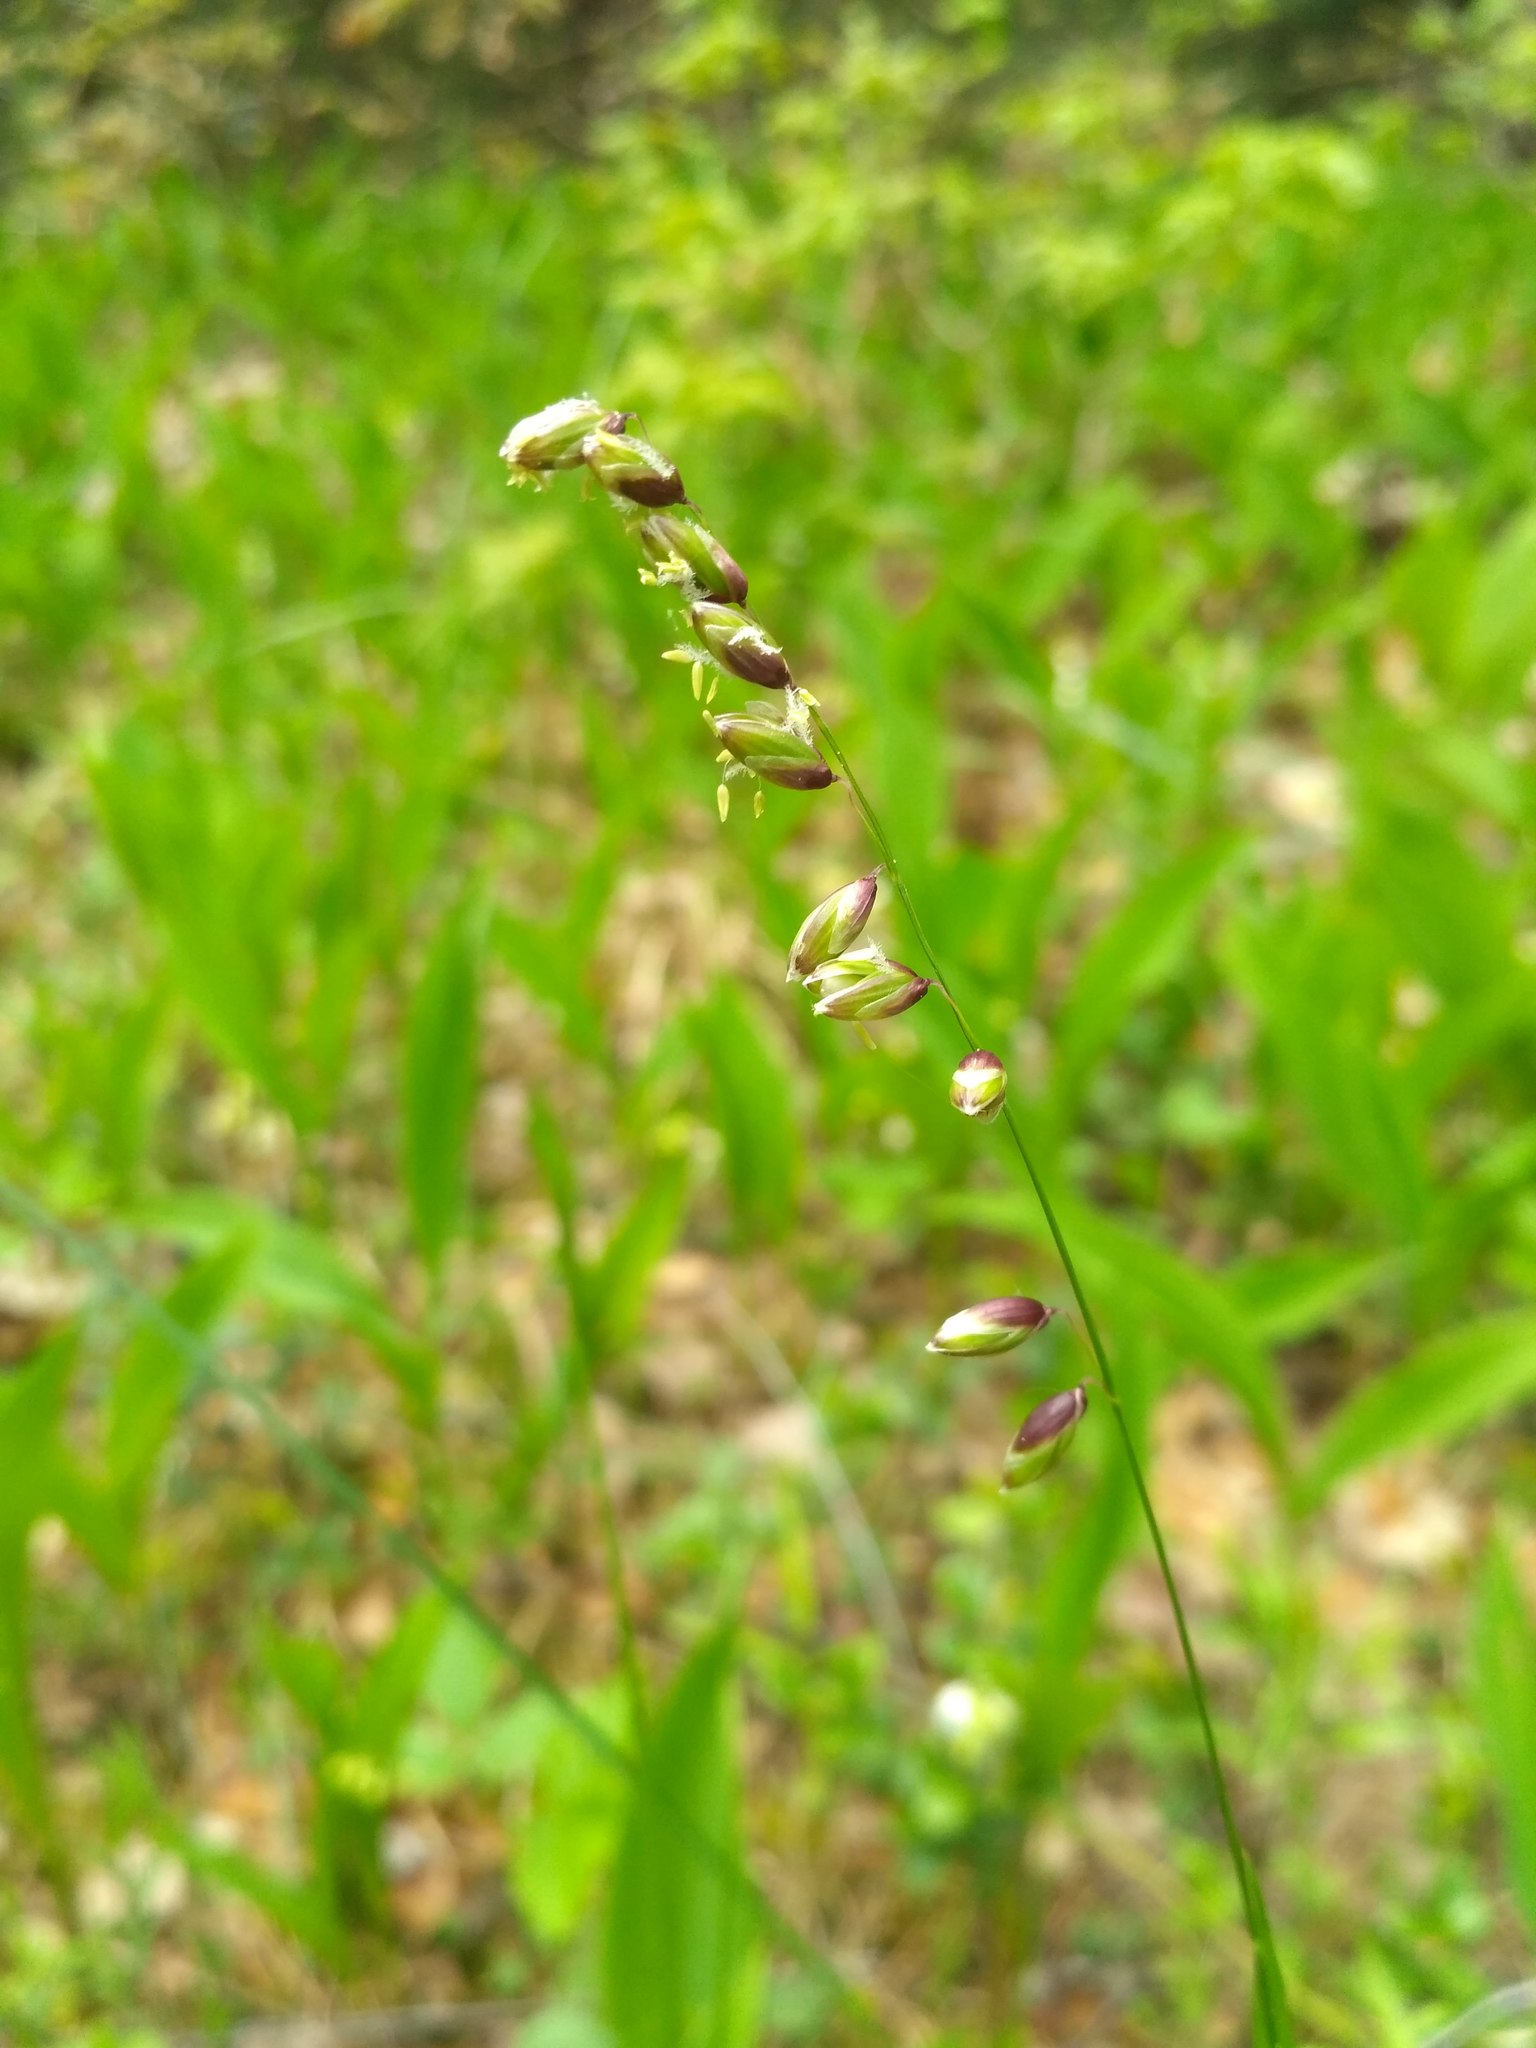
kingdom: Plantae
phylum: Tracheophyta
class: Liliopsida
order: Poales
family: Poaceae
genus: Melica
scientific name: Melica nutans
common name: Mountain melick
